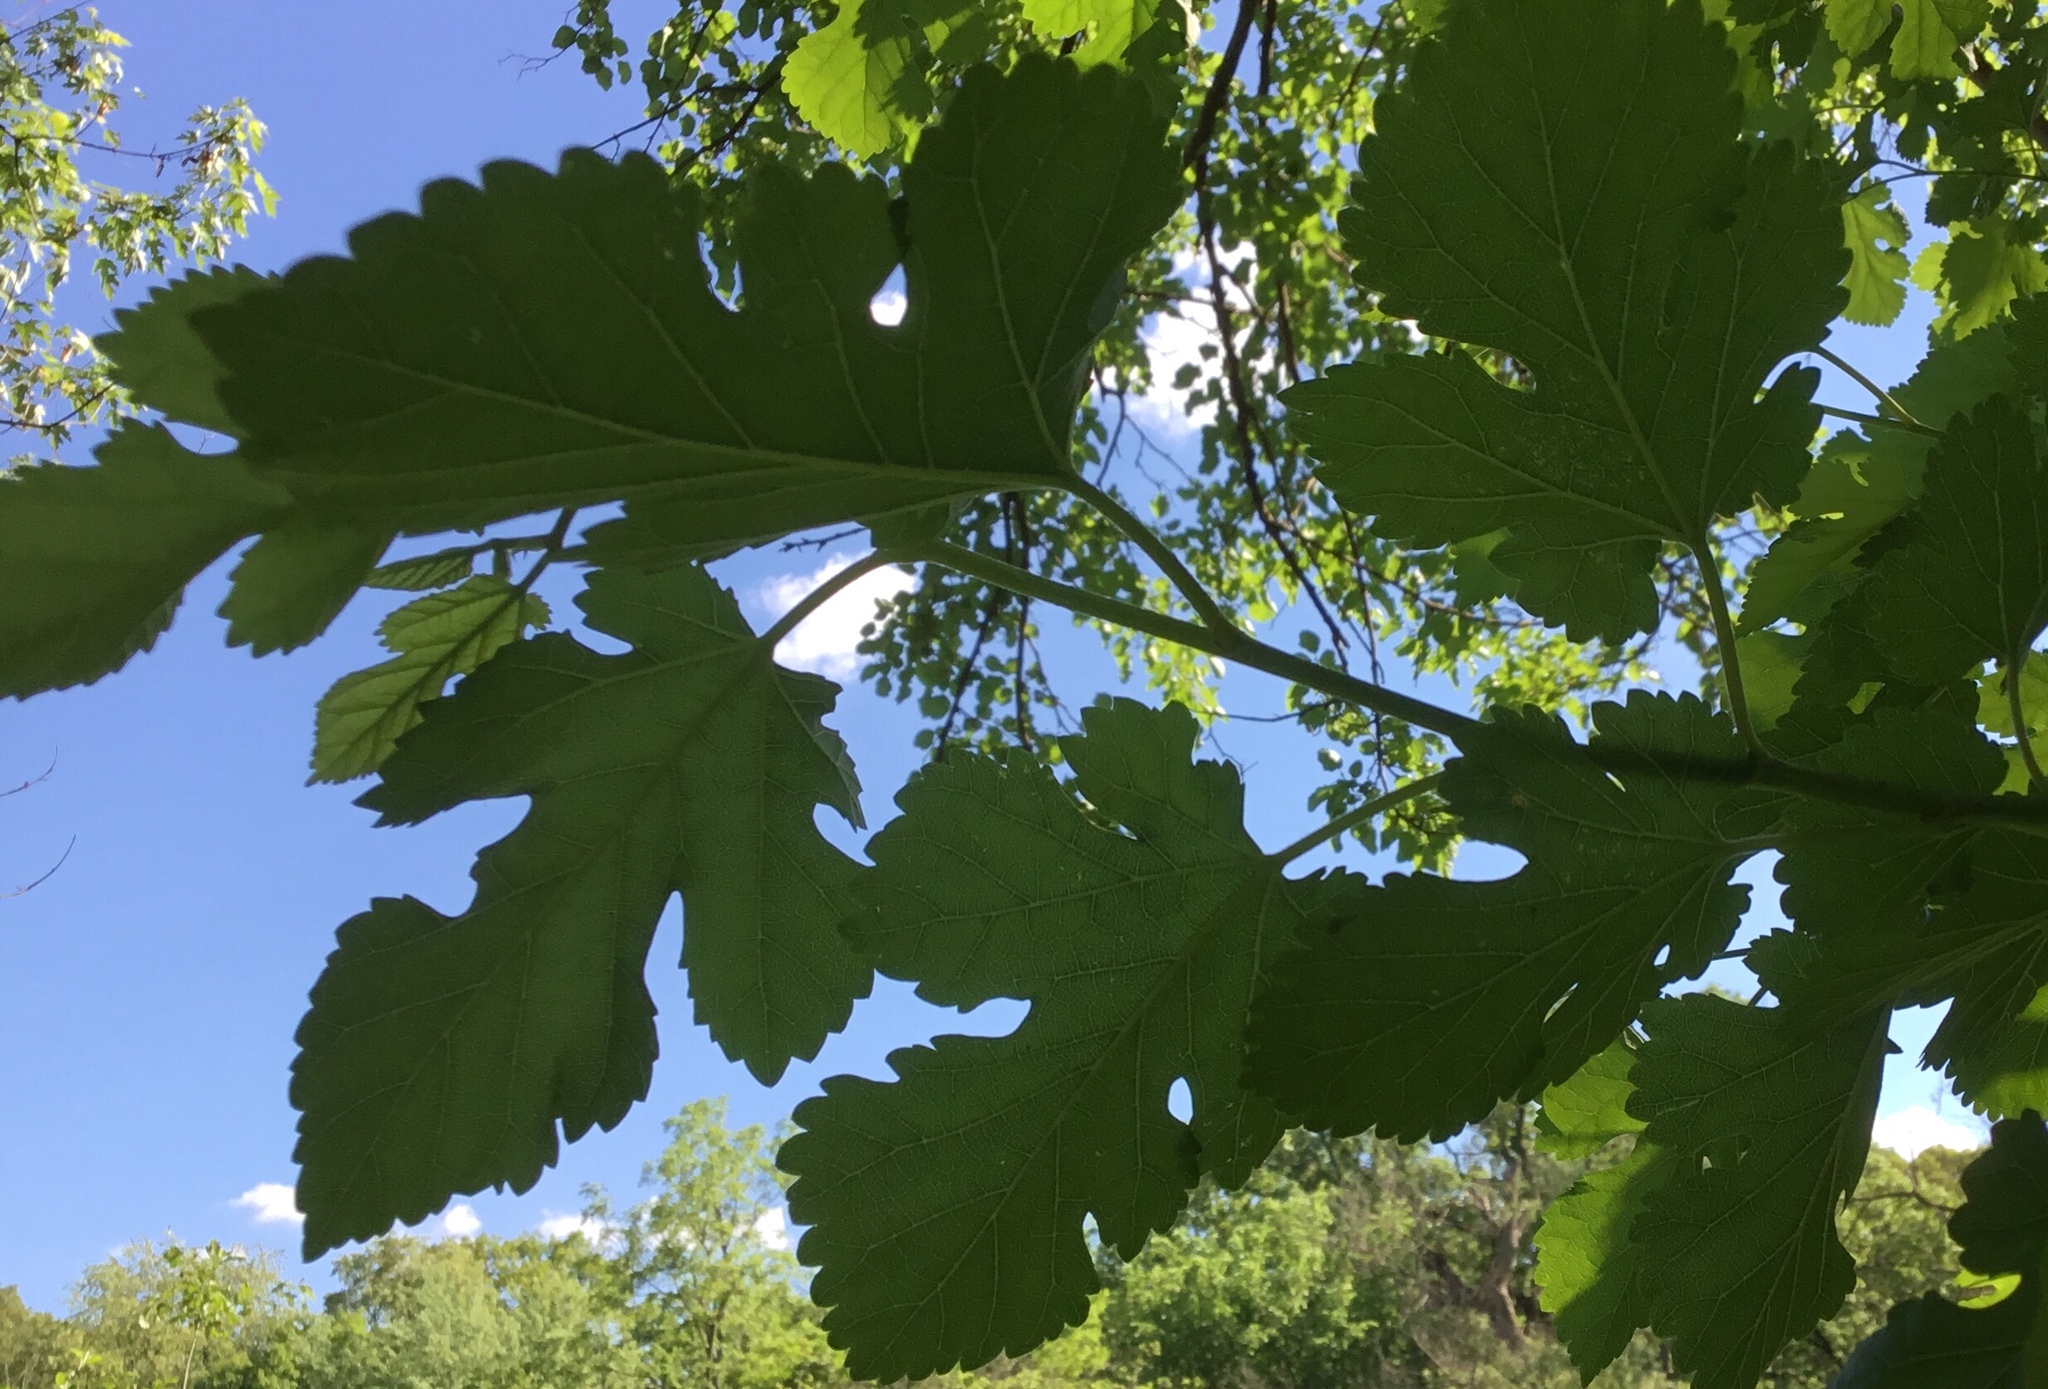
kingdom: Plantae
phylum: Tracheophyta
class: Magnoliopsida
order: Rosales
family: Moraceae
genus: Morus
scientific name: Morus alba
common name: White mulberry
